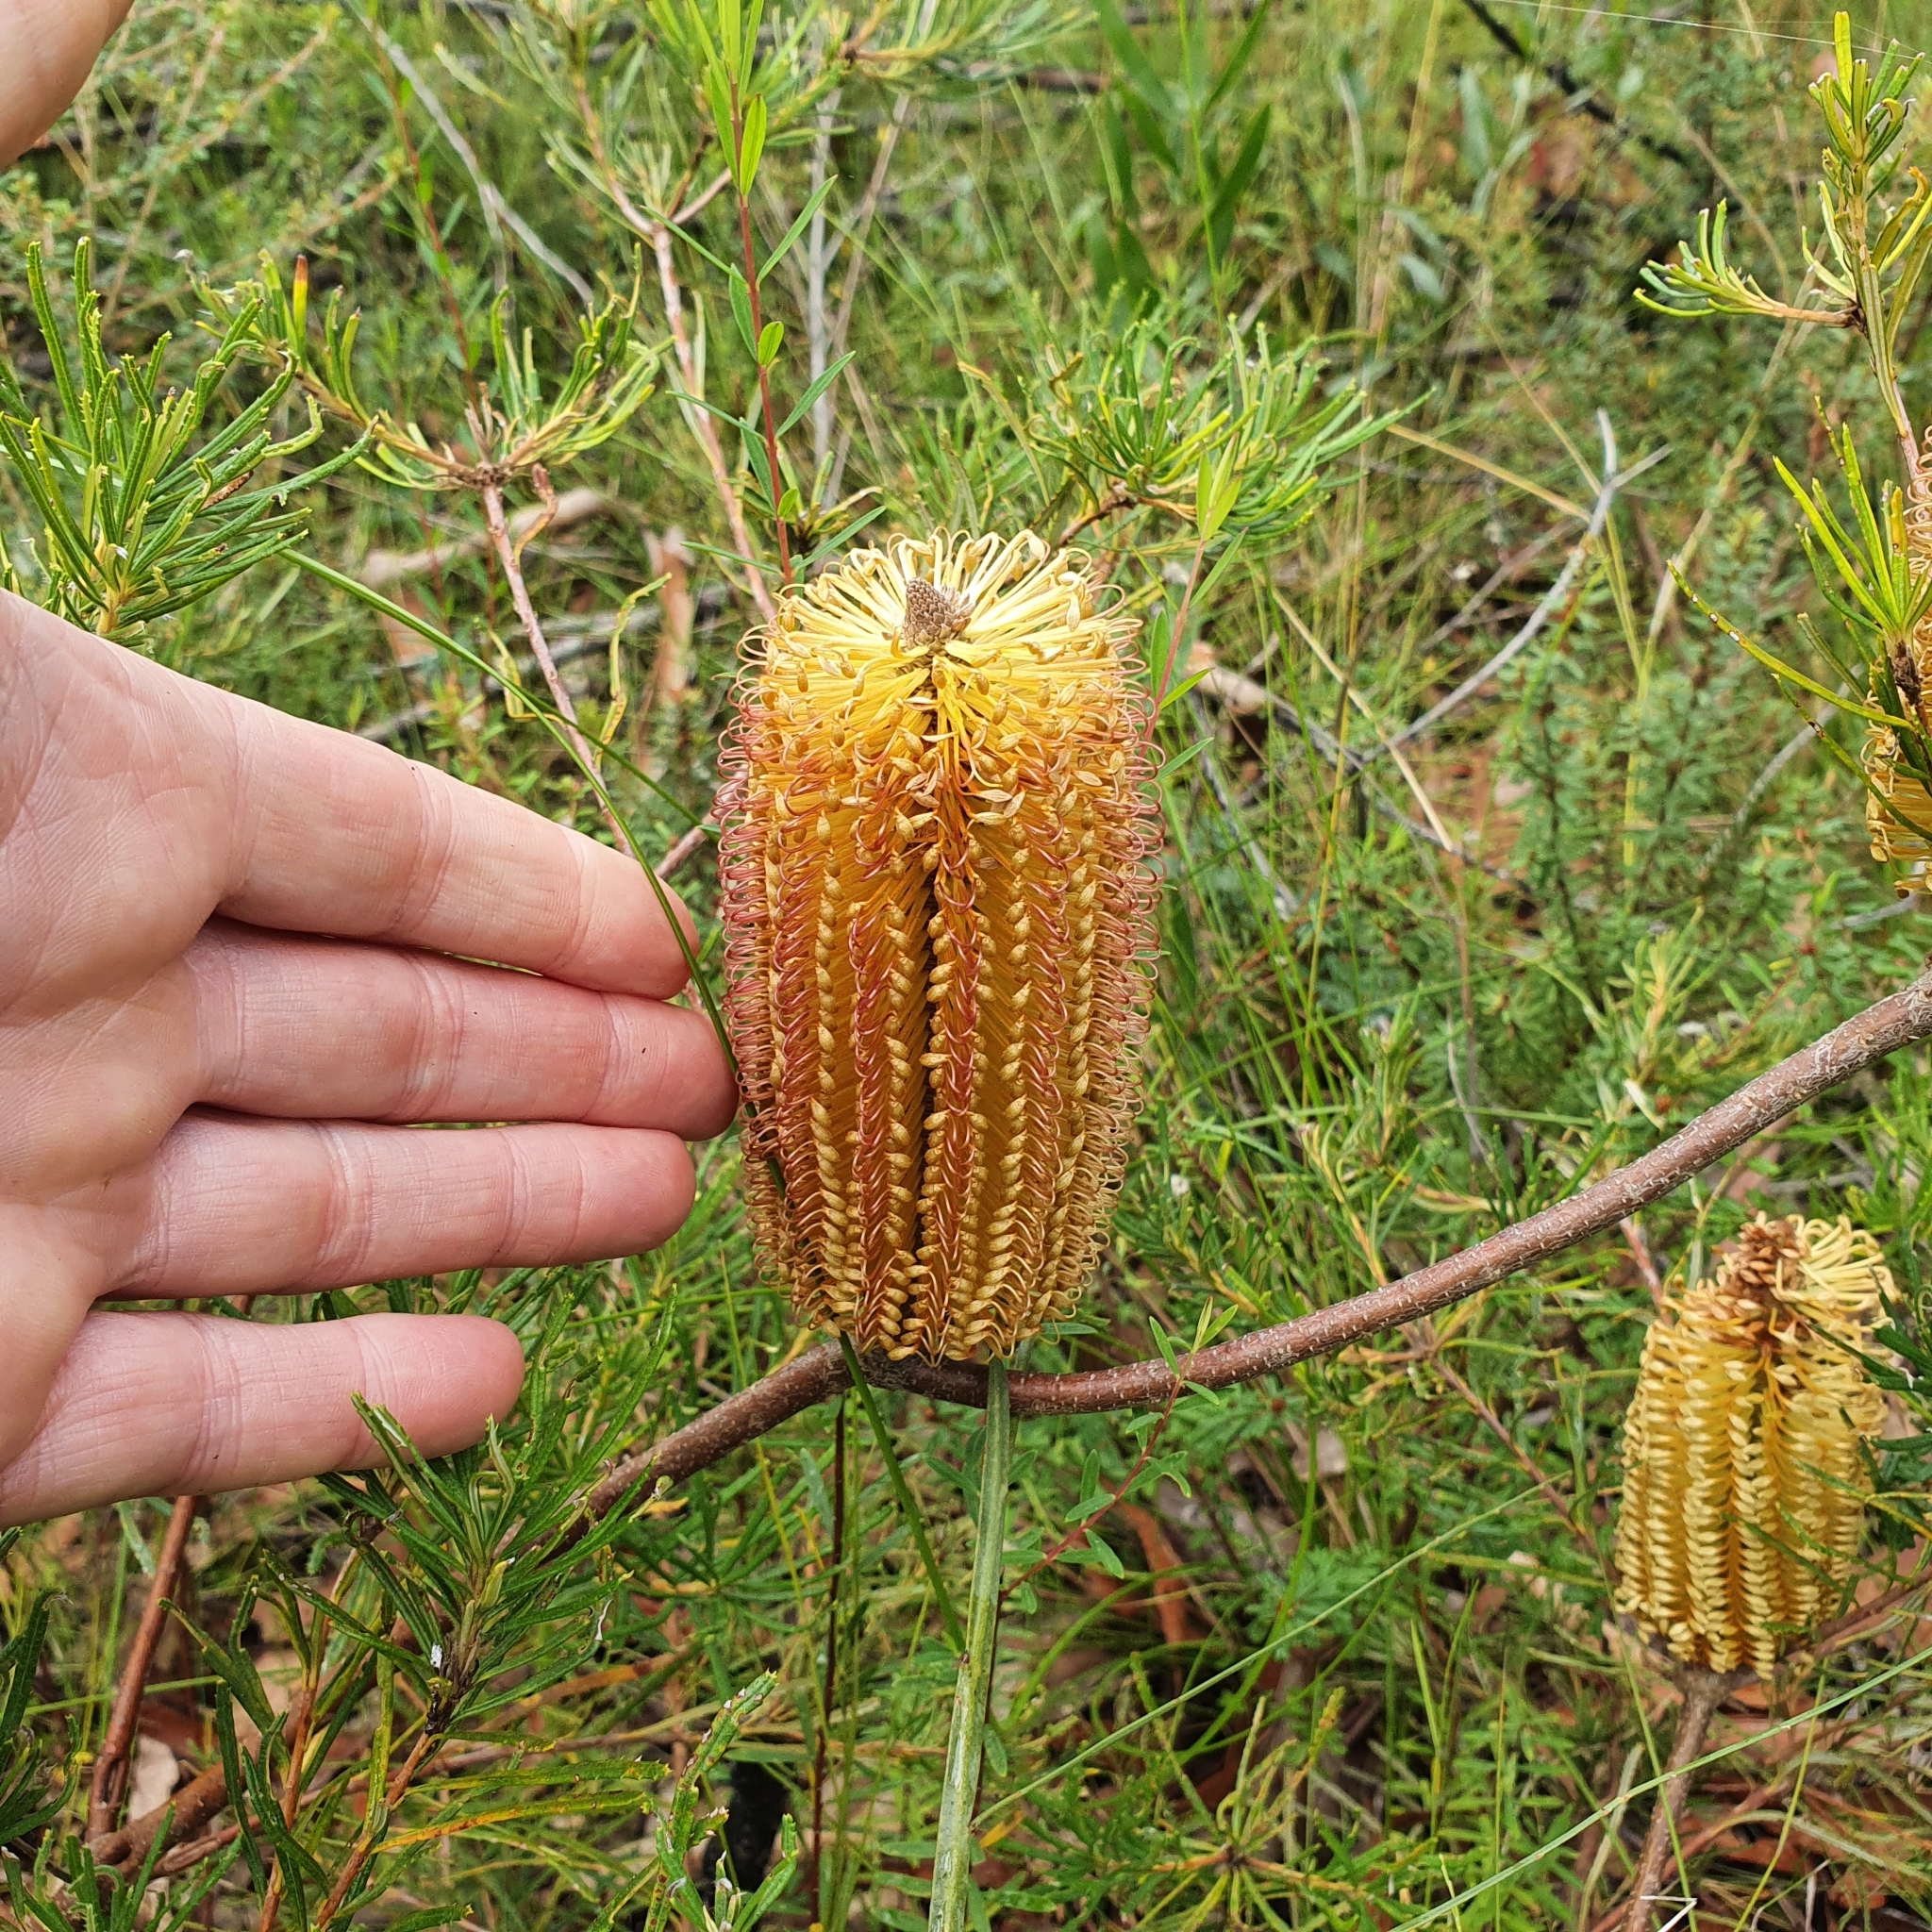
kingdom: Plantae
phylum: Tracheophyta
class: Magnoliopsida
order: Proteales
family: Proteaceae
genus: Banksia
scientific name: Banksia spinulosa
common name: Hairpin banksia
